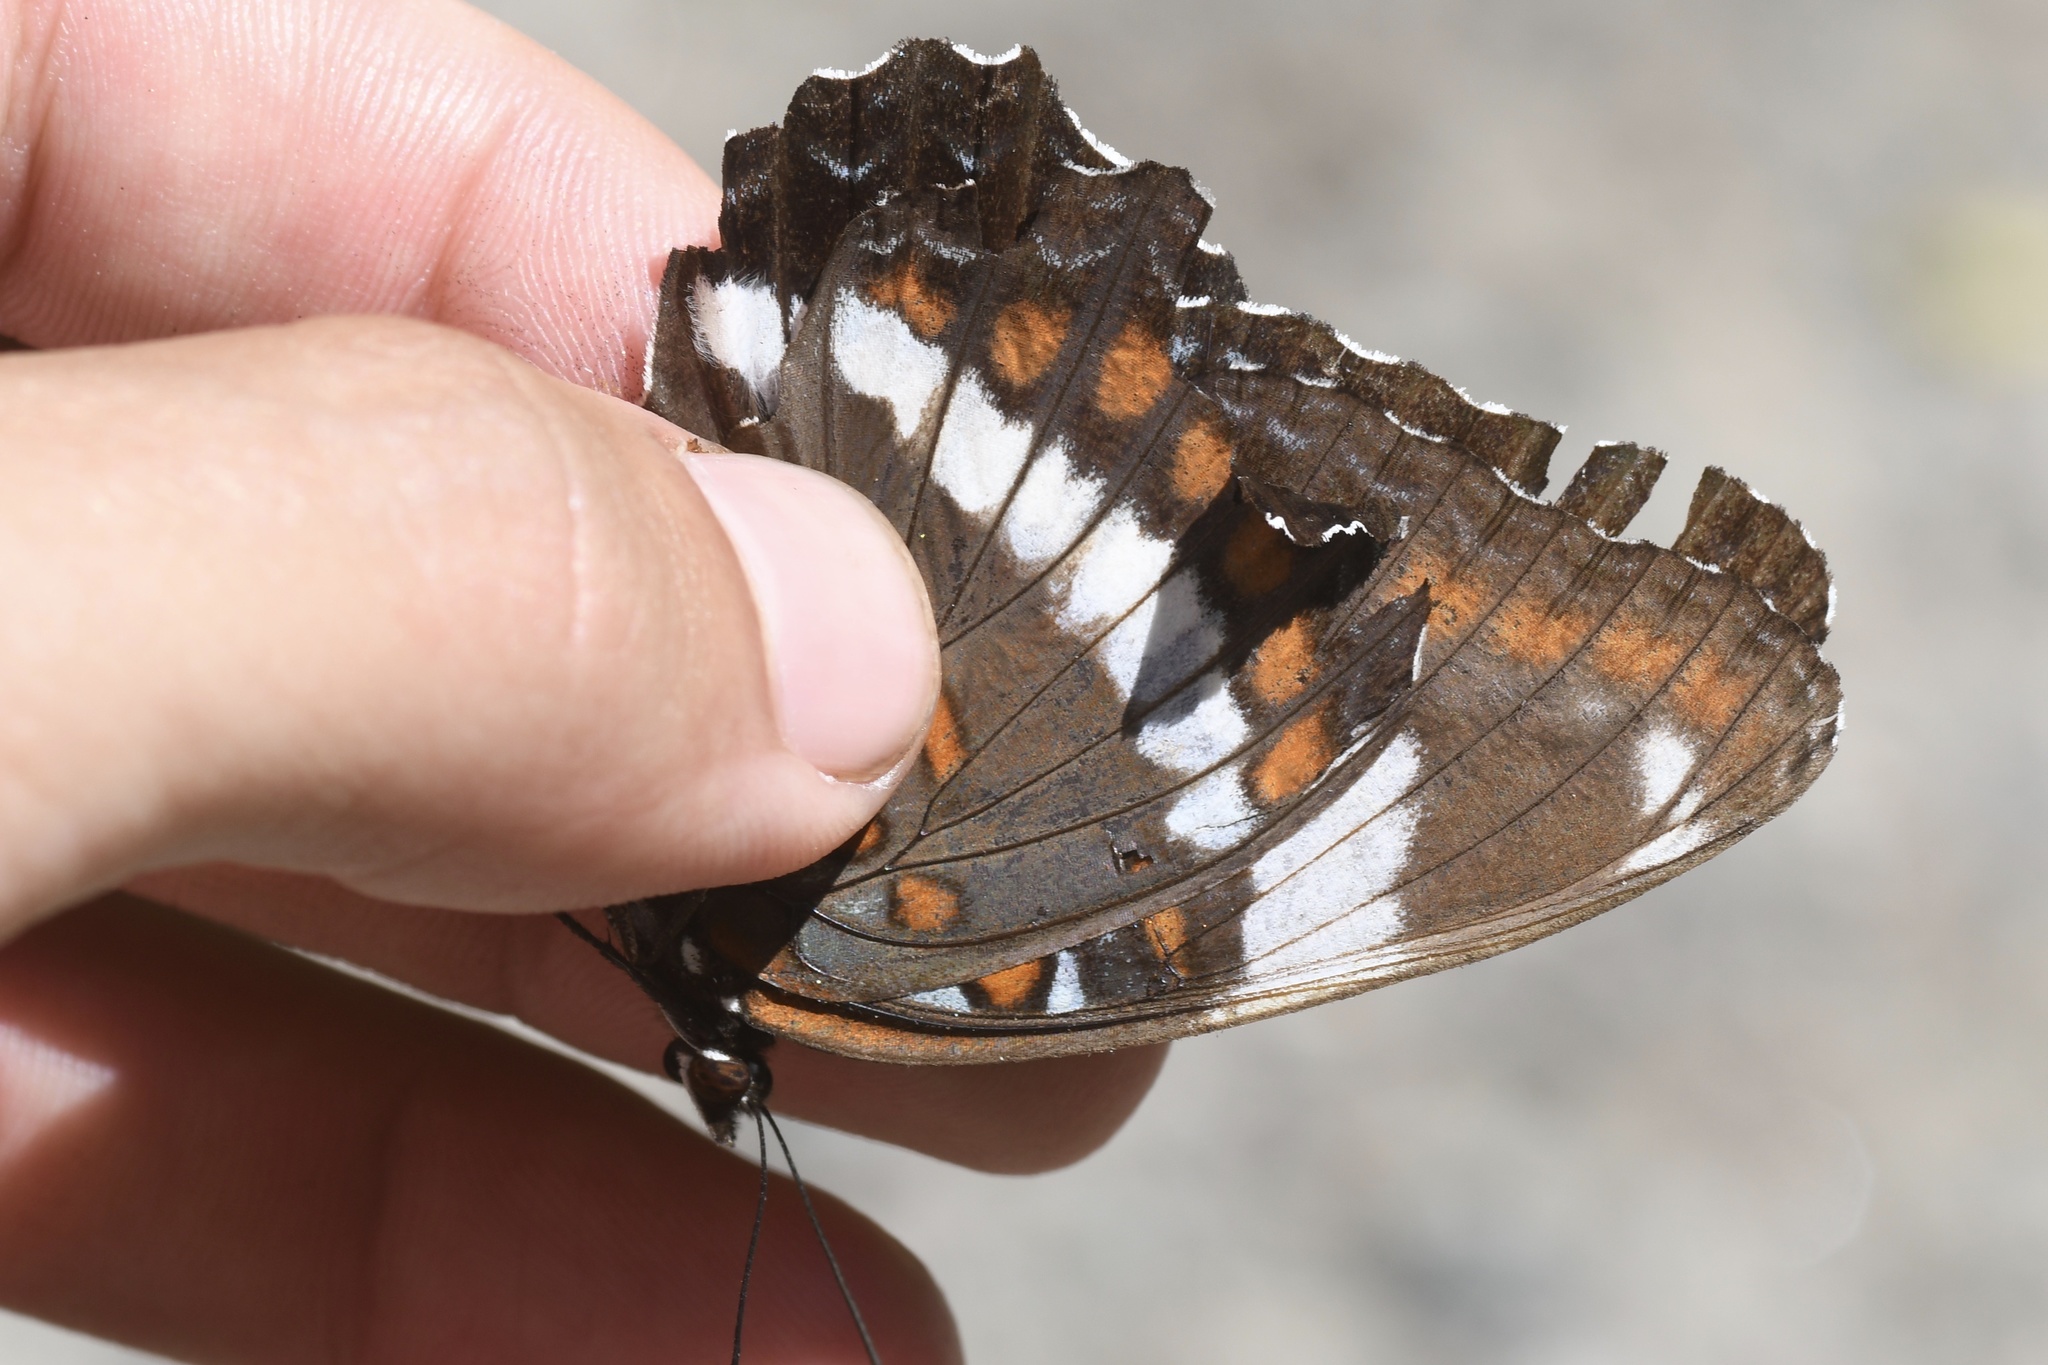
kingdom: Animalia
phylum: Arthropoda
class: Insecta
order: Lepidoptera
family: Nymphalidae
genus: Limenitis
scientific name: Limenitis arthemis
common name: Red-spotted admiral
